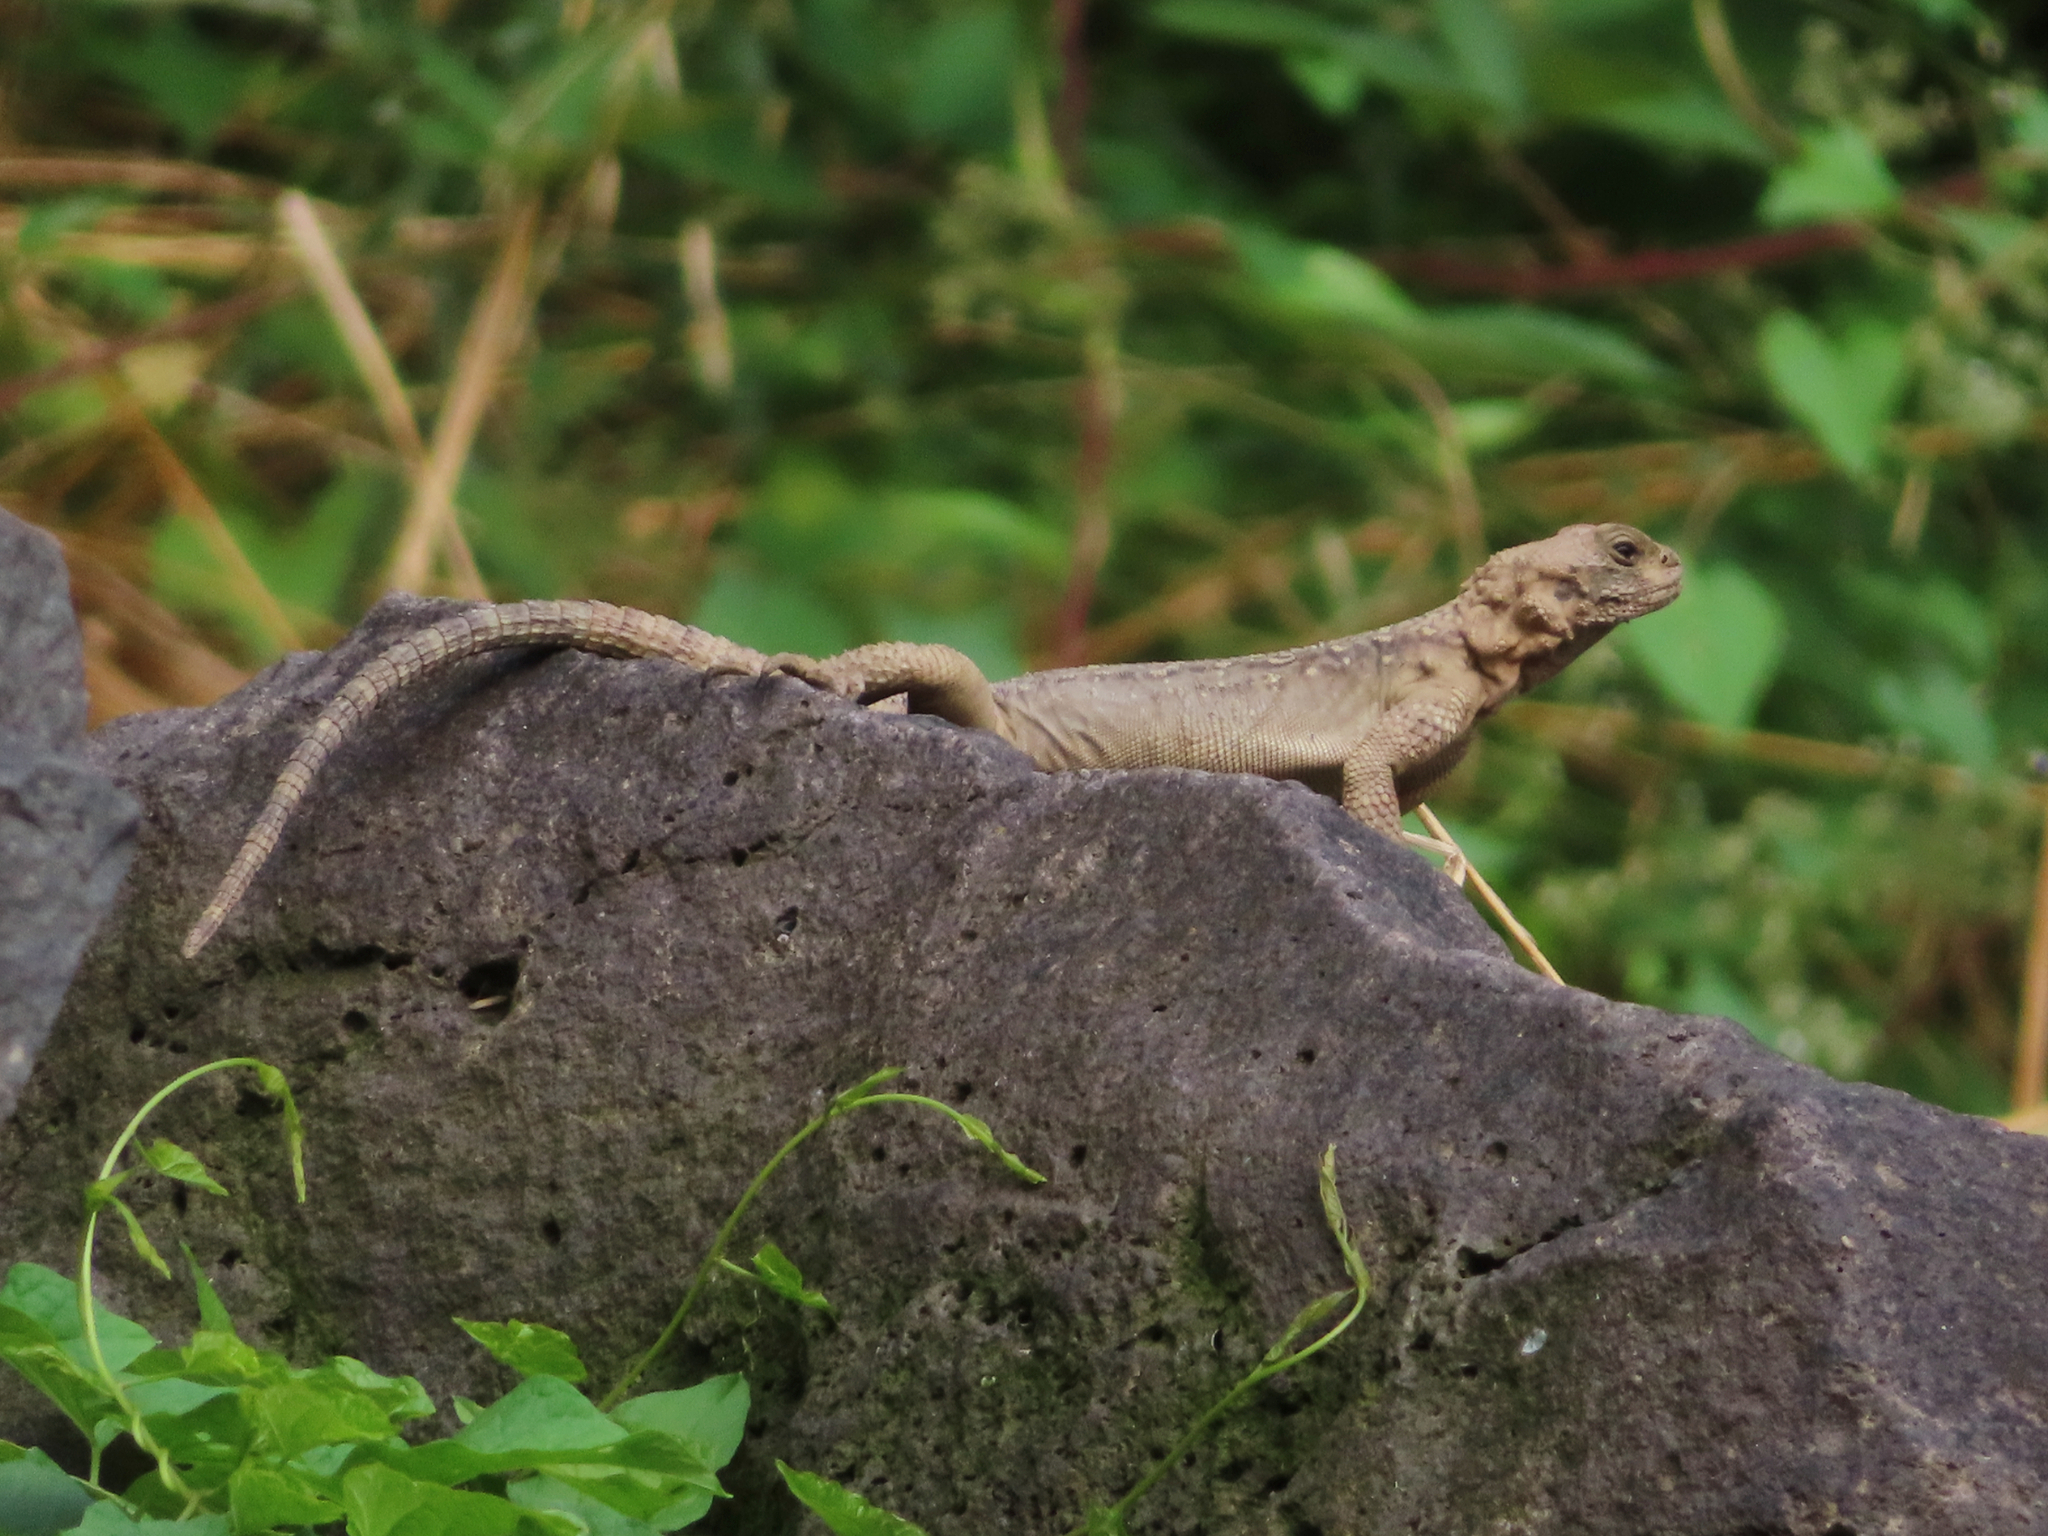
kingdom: Animalia
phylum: Chordata
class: Squamata
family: Agamidae
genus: Paralaudakia
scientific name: Paralaudakia caucasia
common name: Caucasian agama
